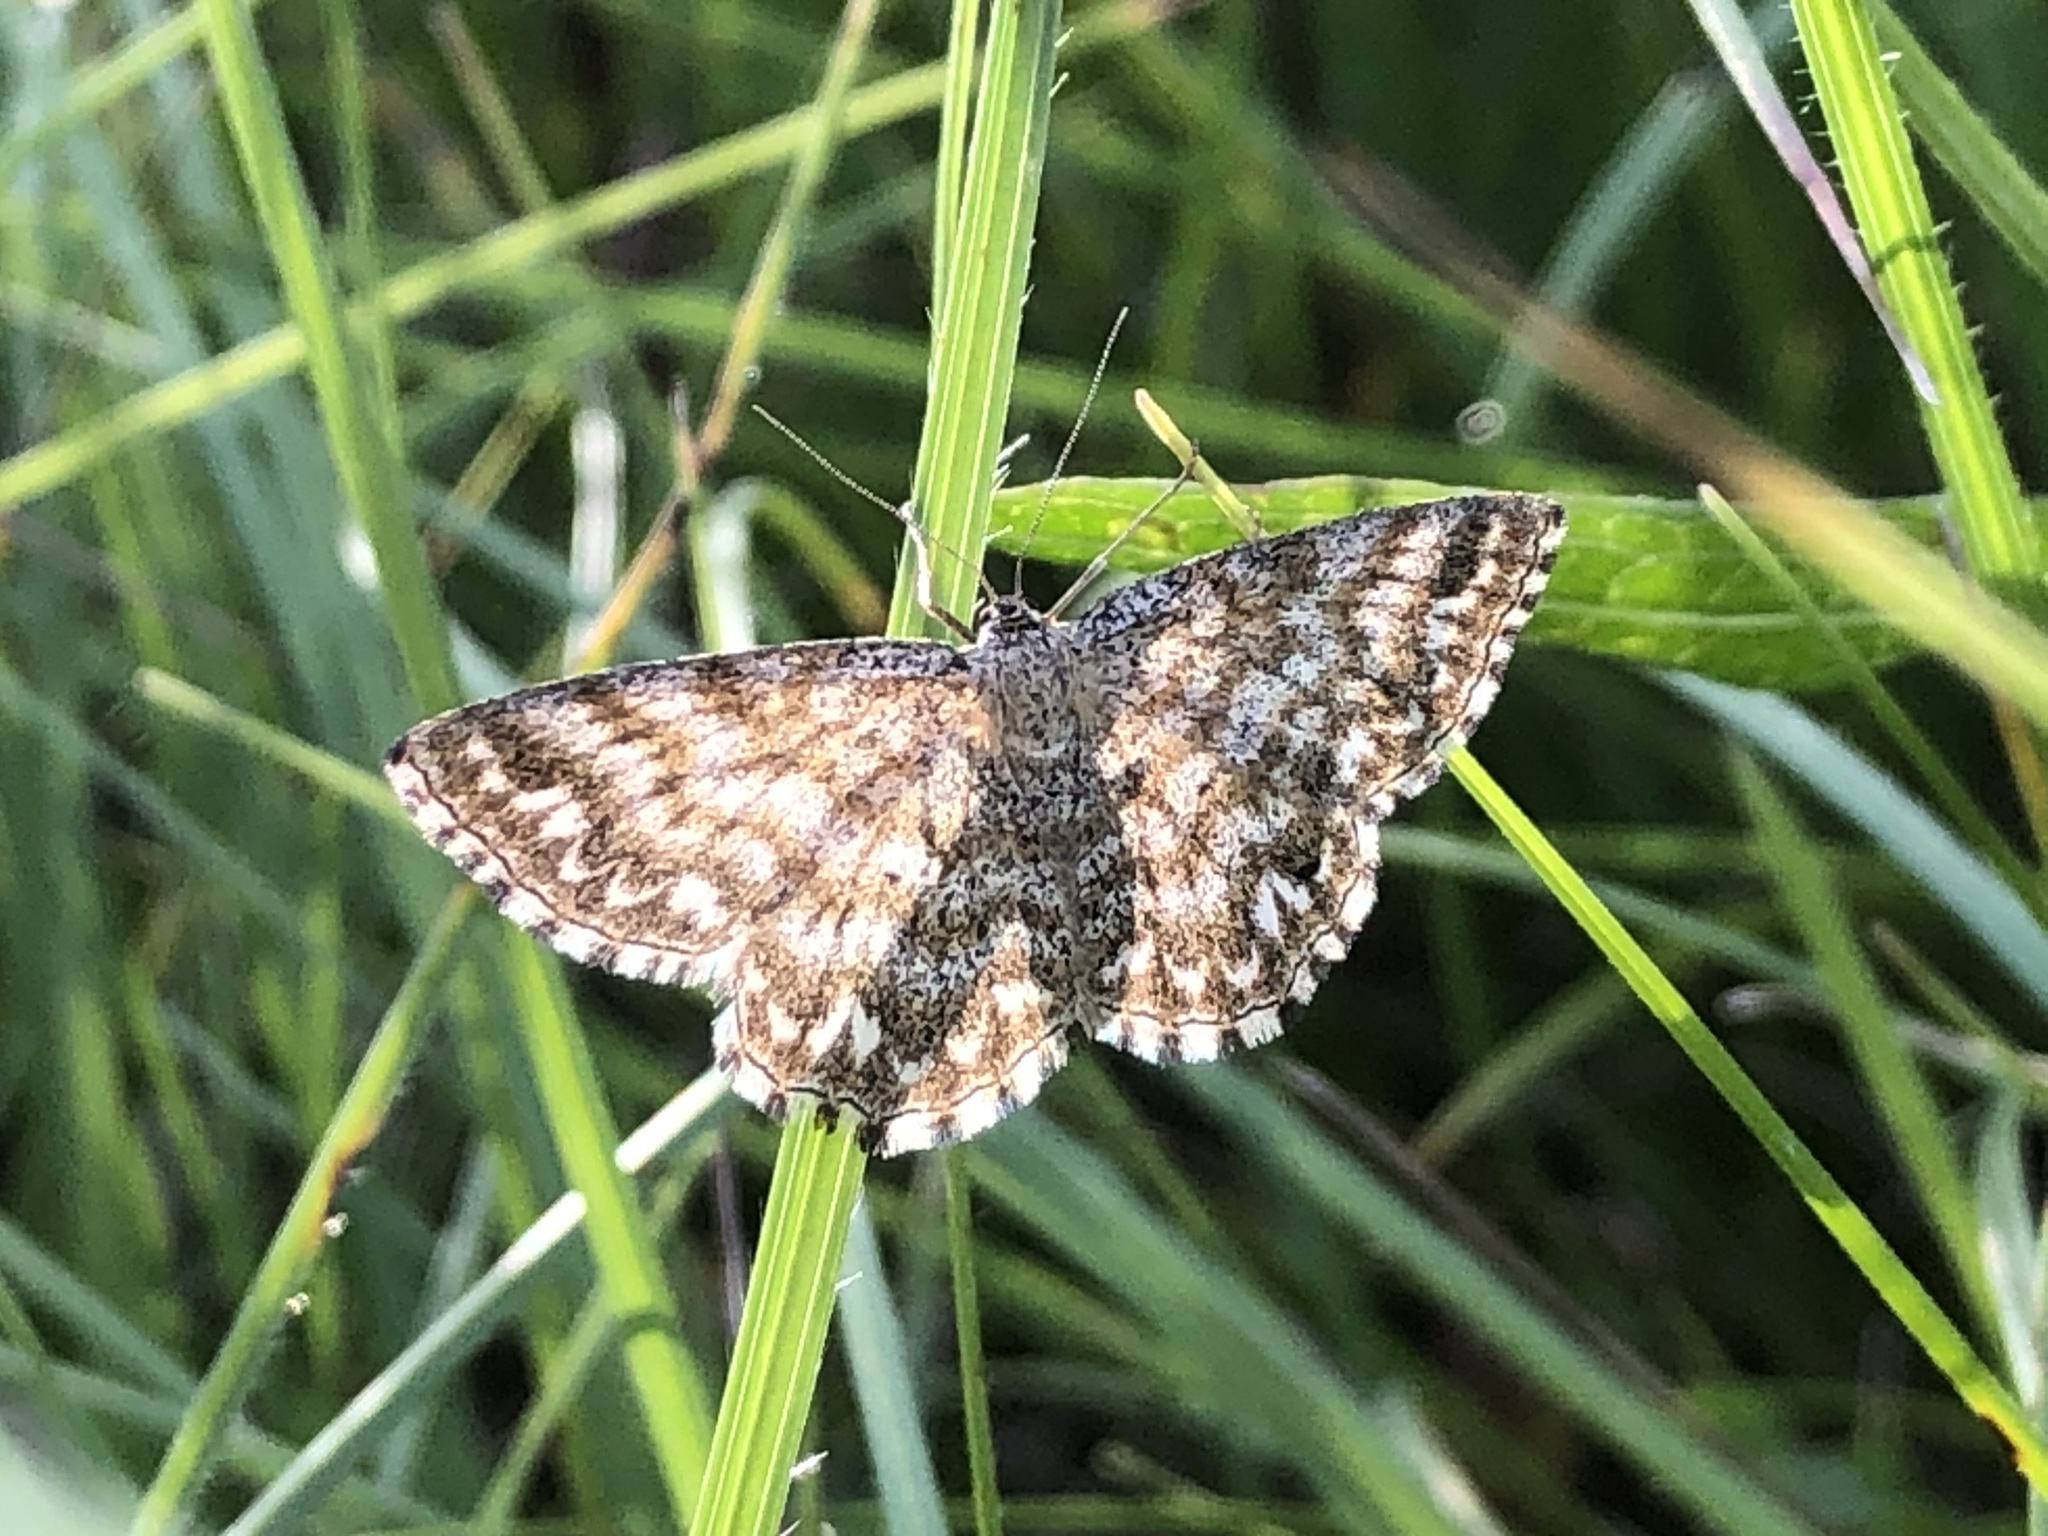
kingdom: Animalia
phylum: Arthropoda
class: Insecta
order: Lepidoptera
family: Geometridae
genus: Scopula
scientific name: Scopula immorata
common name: Lewes wave
